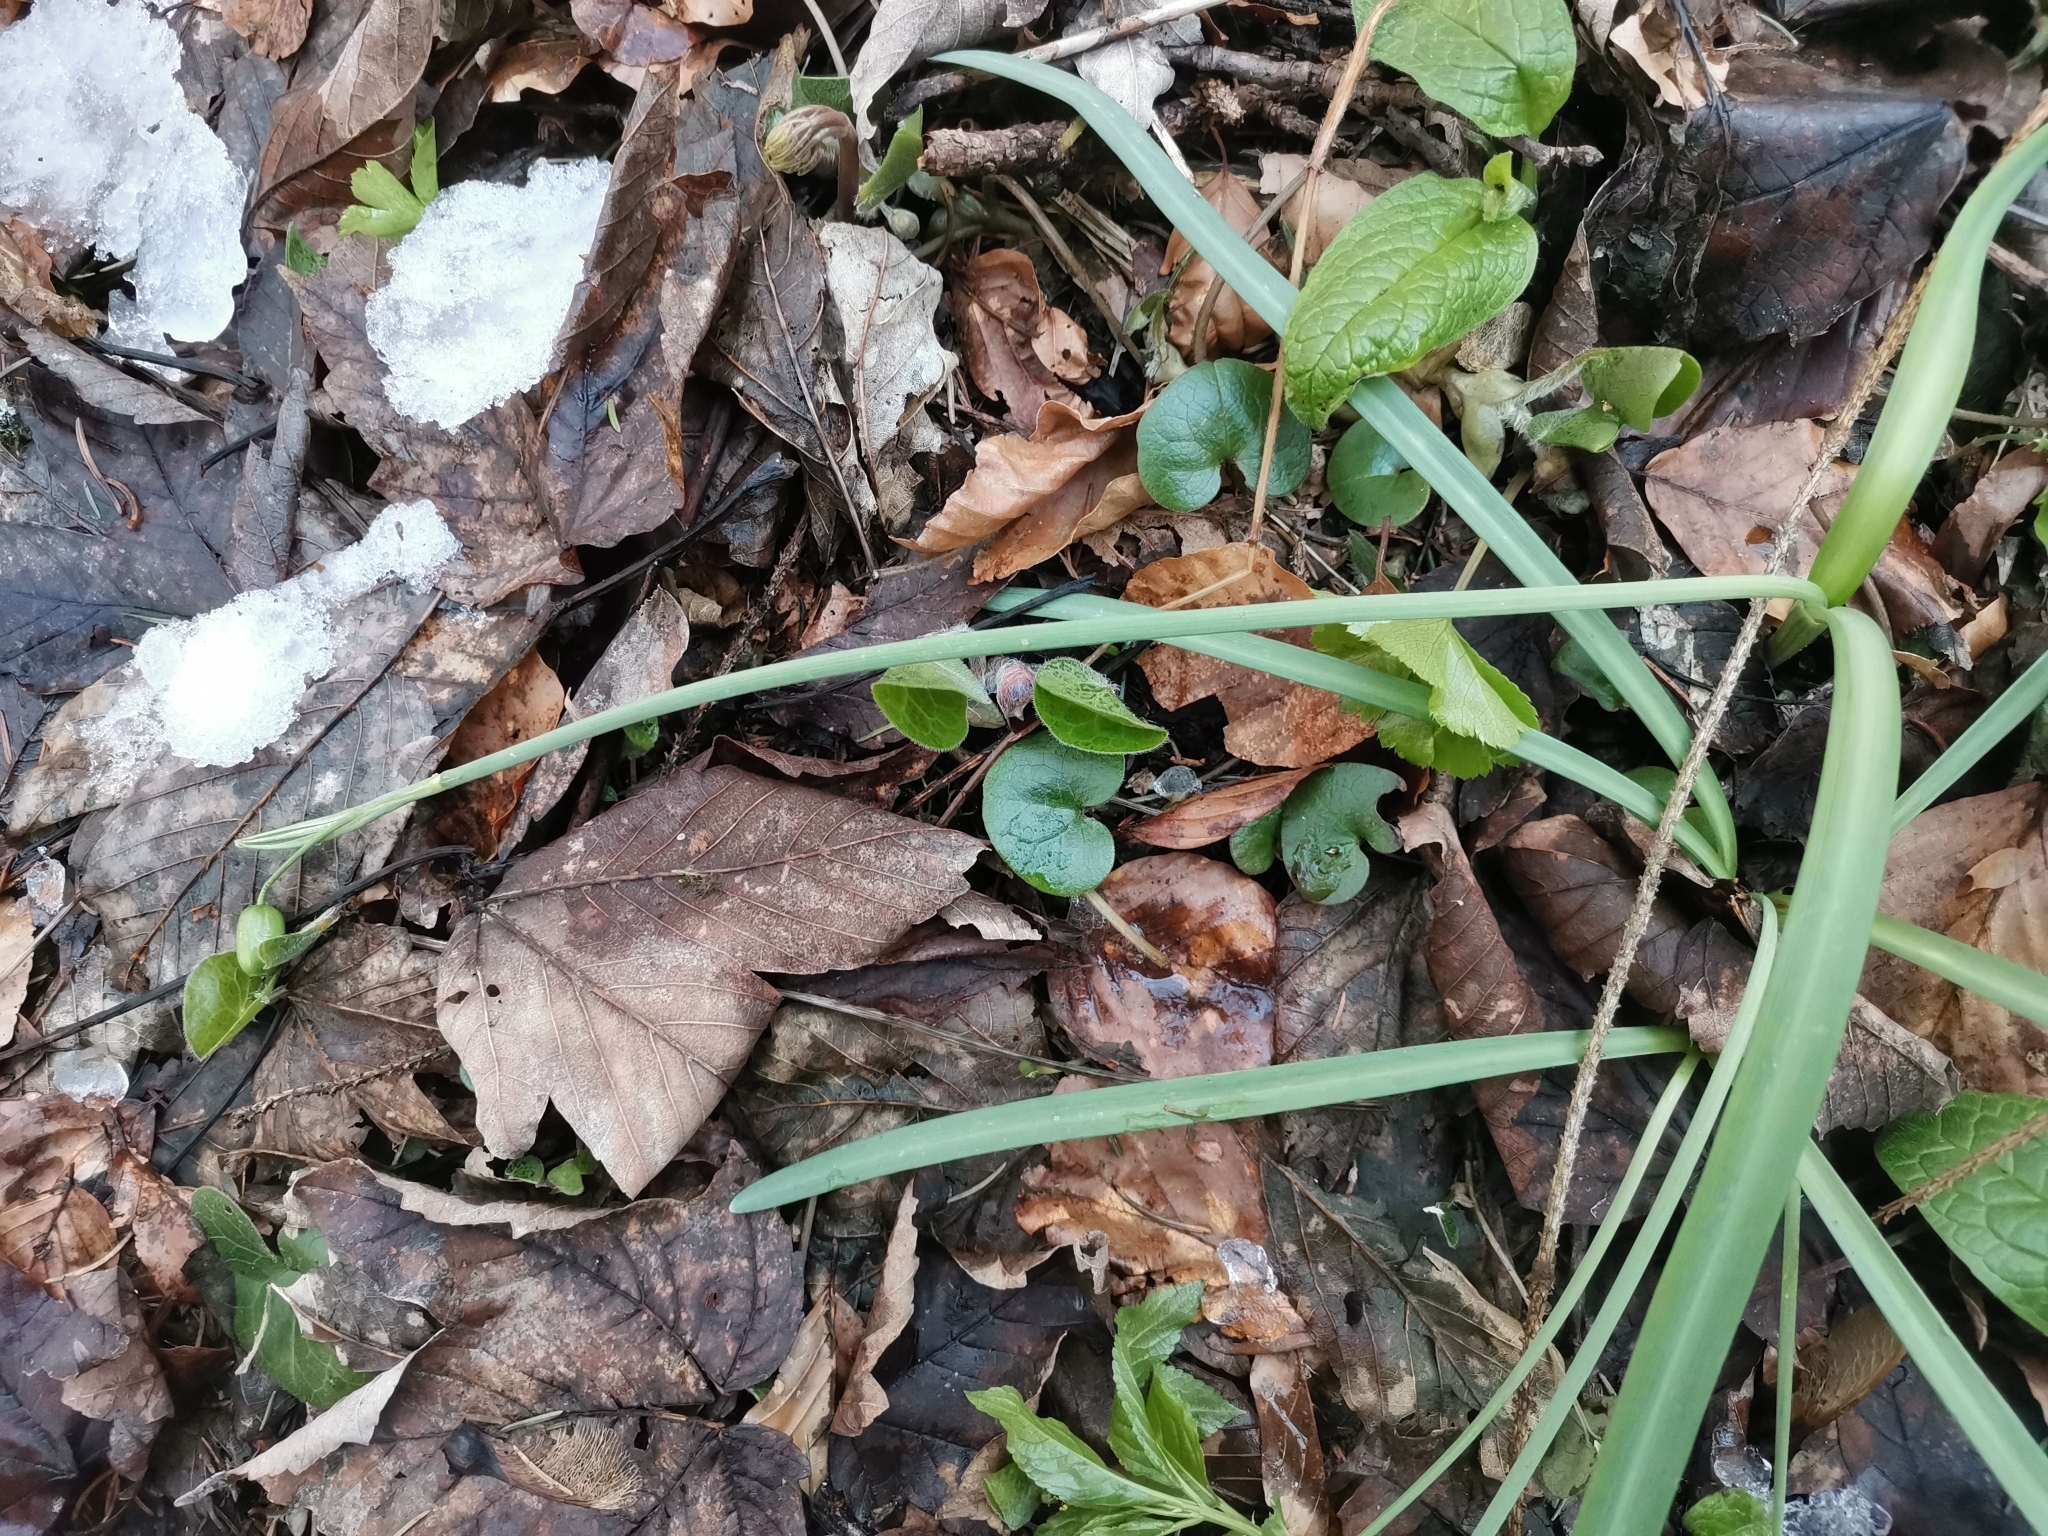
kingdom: Plantae
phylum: Tracheophyta
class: Liliopsida
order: Asparagales
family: Amaryllidaceae
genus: Galanthus
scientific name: Galanthus nivalis
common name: Snowdrop
